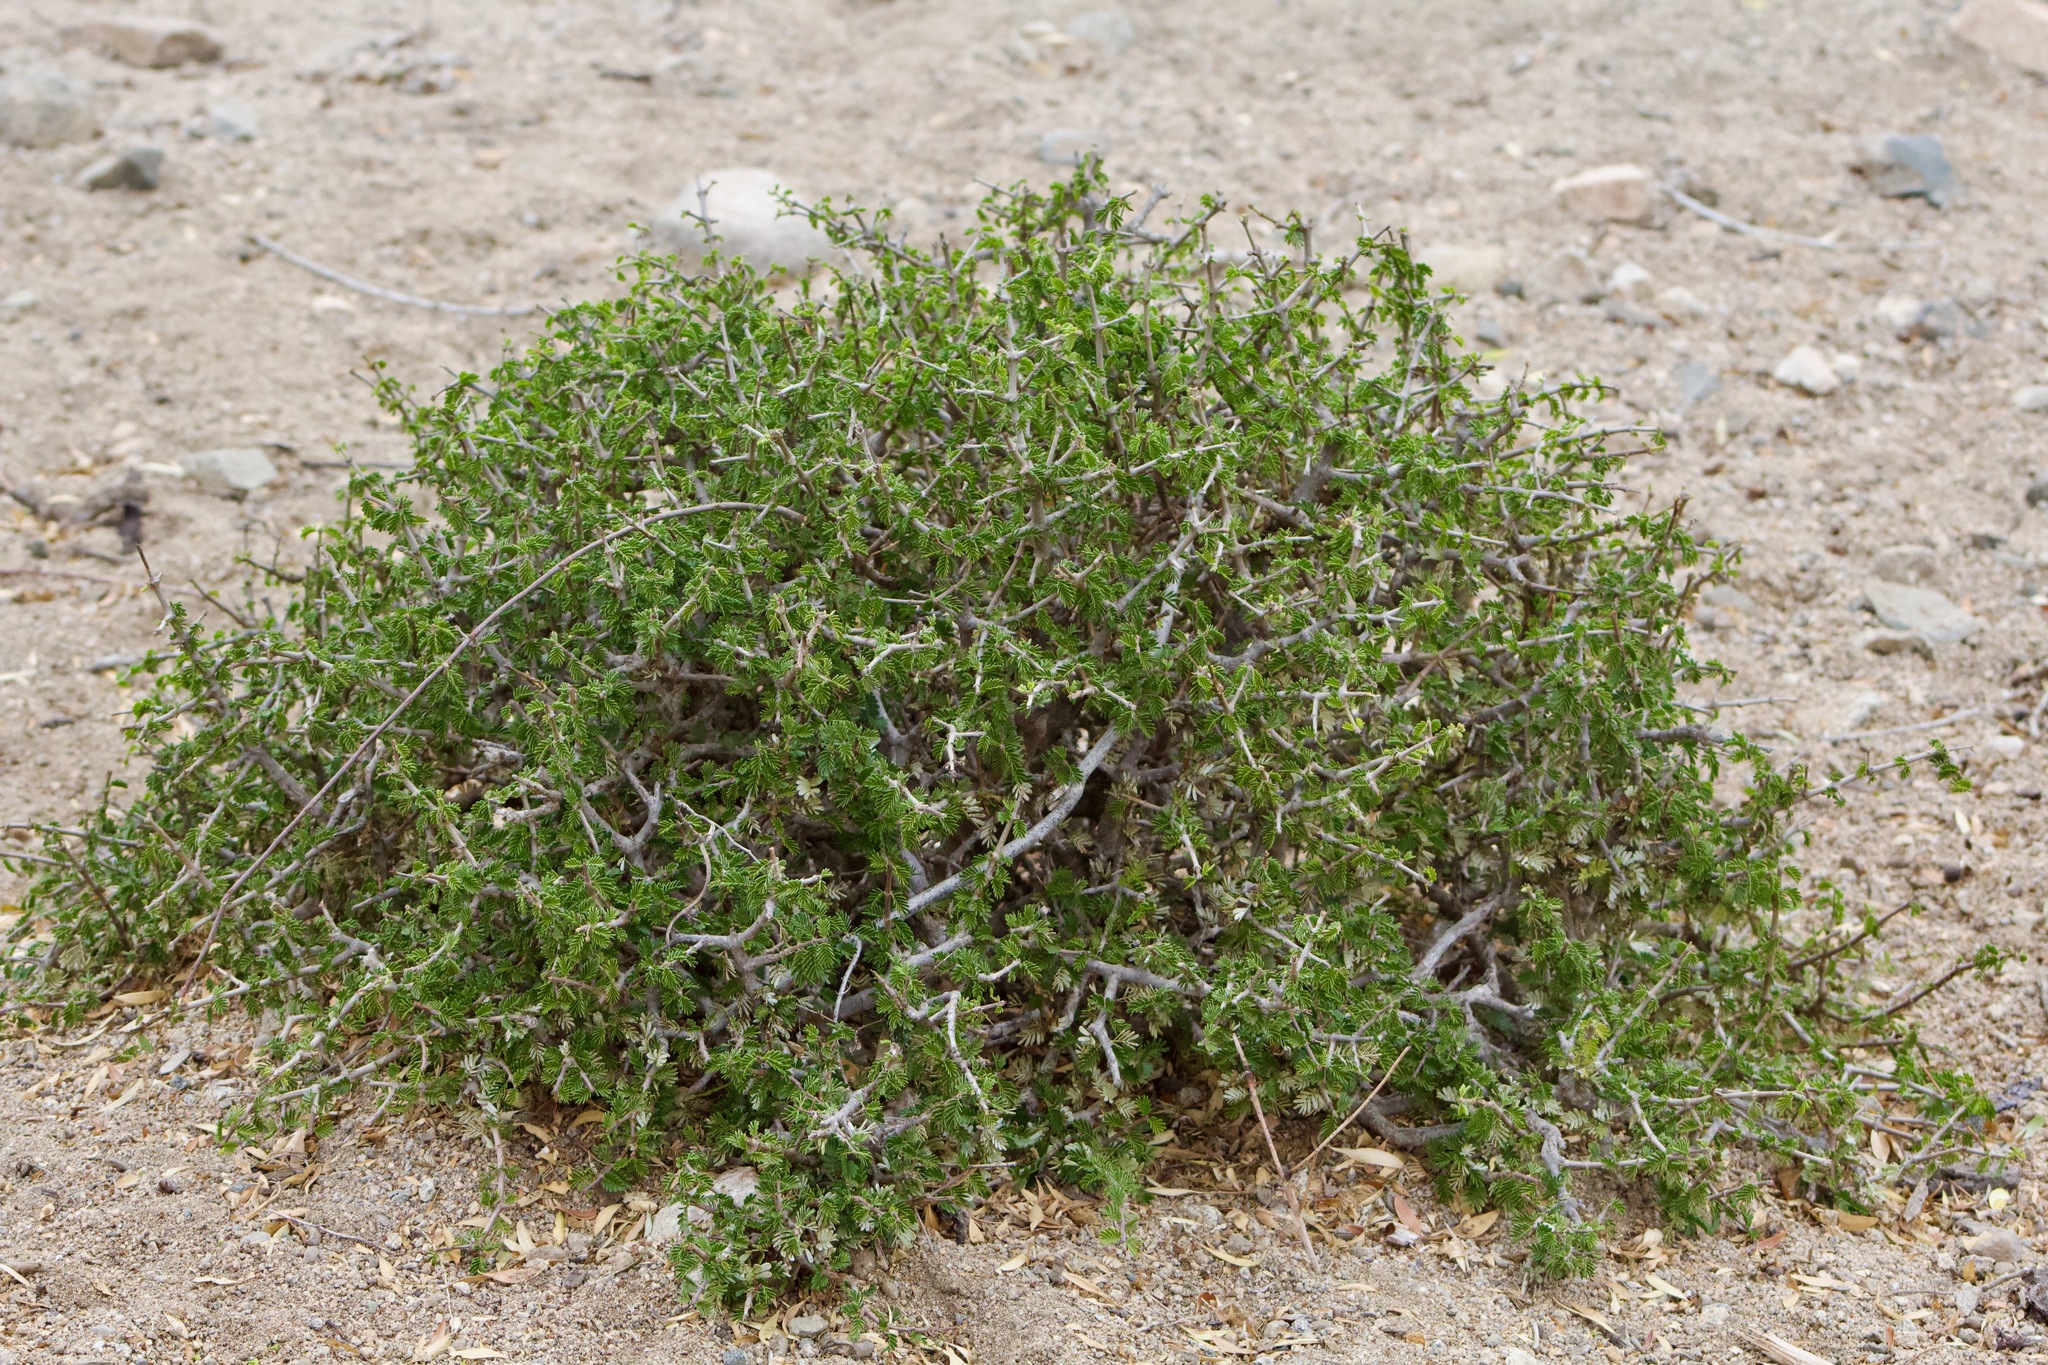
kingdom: Plantae
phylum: Tracheophyta
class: Magnoliopsida
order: Zygophyllales
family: Zygophyllaceae
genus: Porlieria
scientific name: Porlieria chilensis
